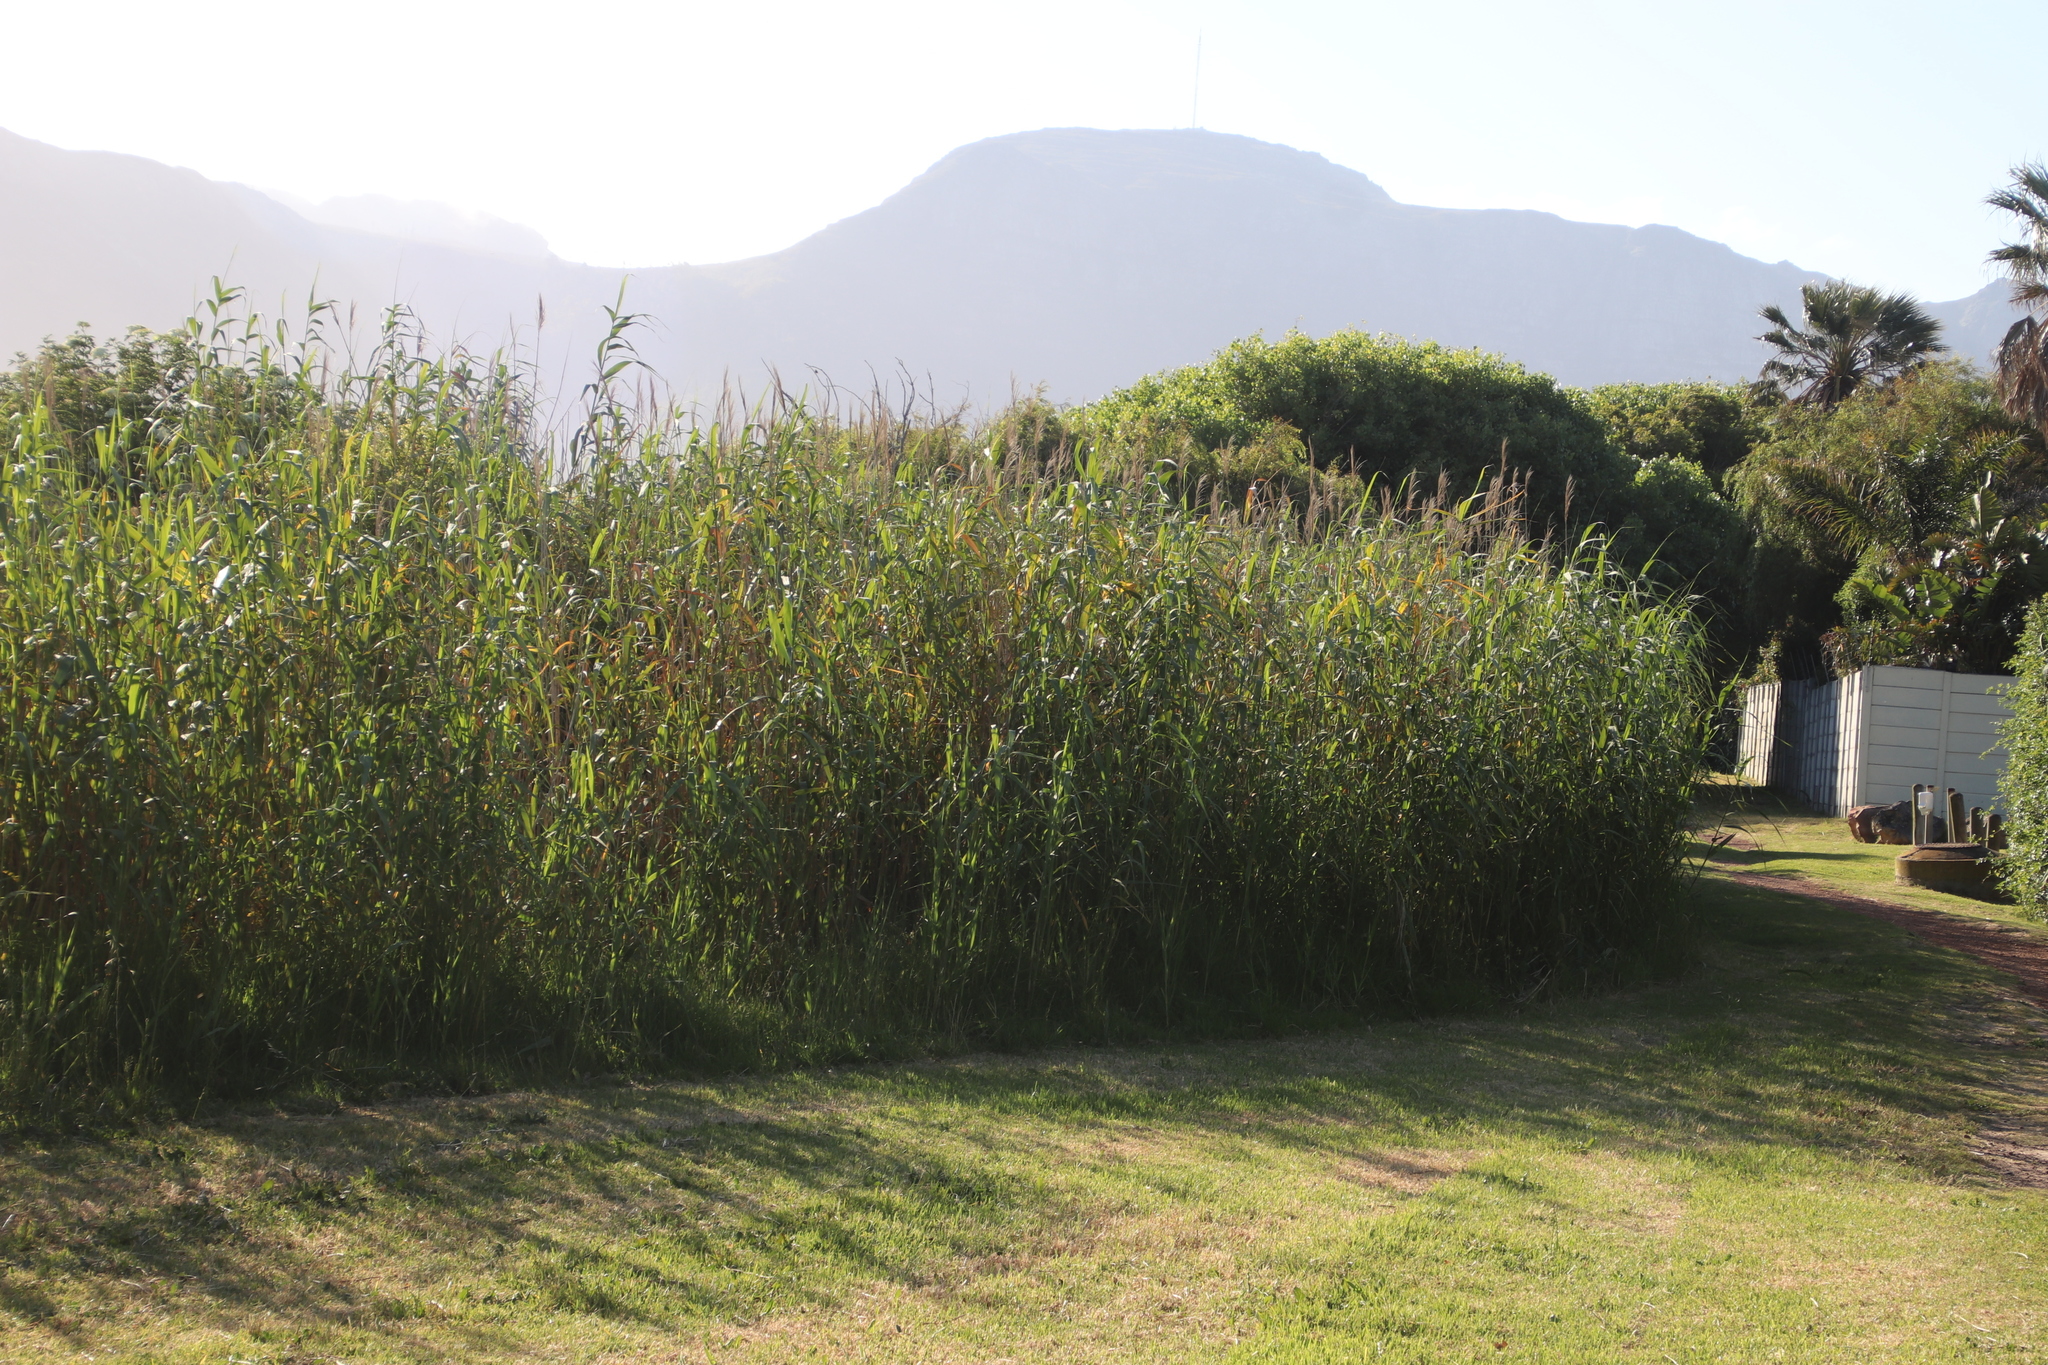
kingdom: Plantae
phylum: Tracheophyta
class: Liliopsida
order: Poales
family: Poaceae
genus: Phragmites
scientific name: Phragmites australis
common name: Common reed
